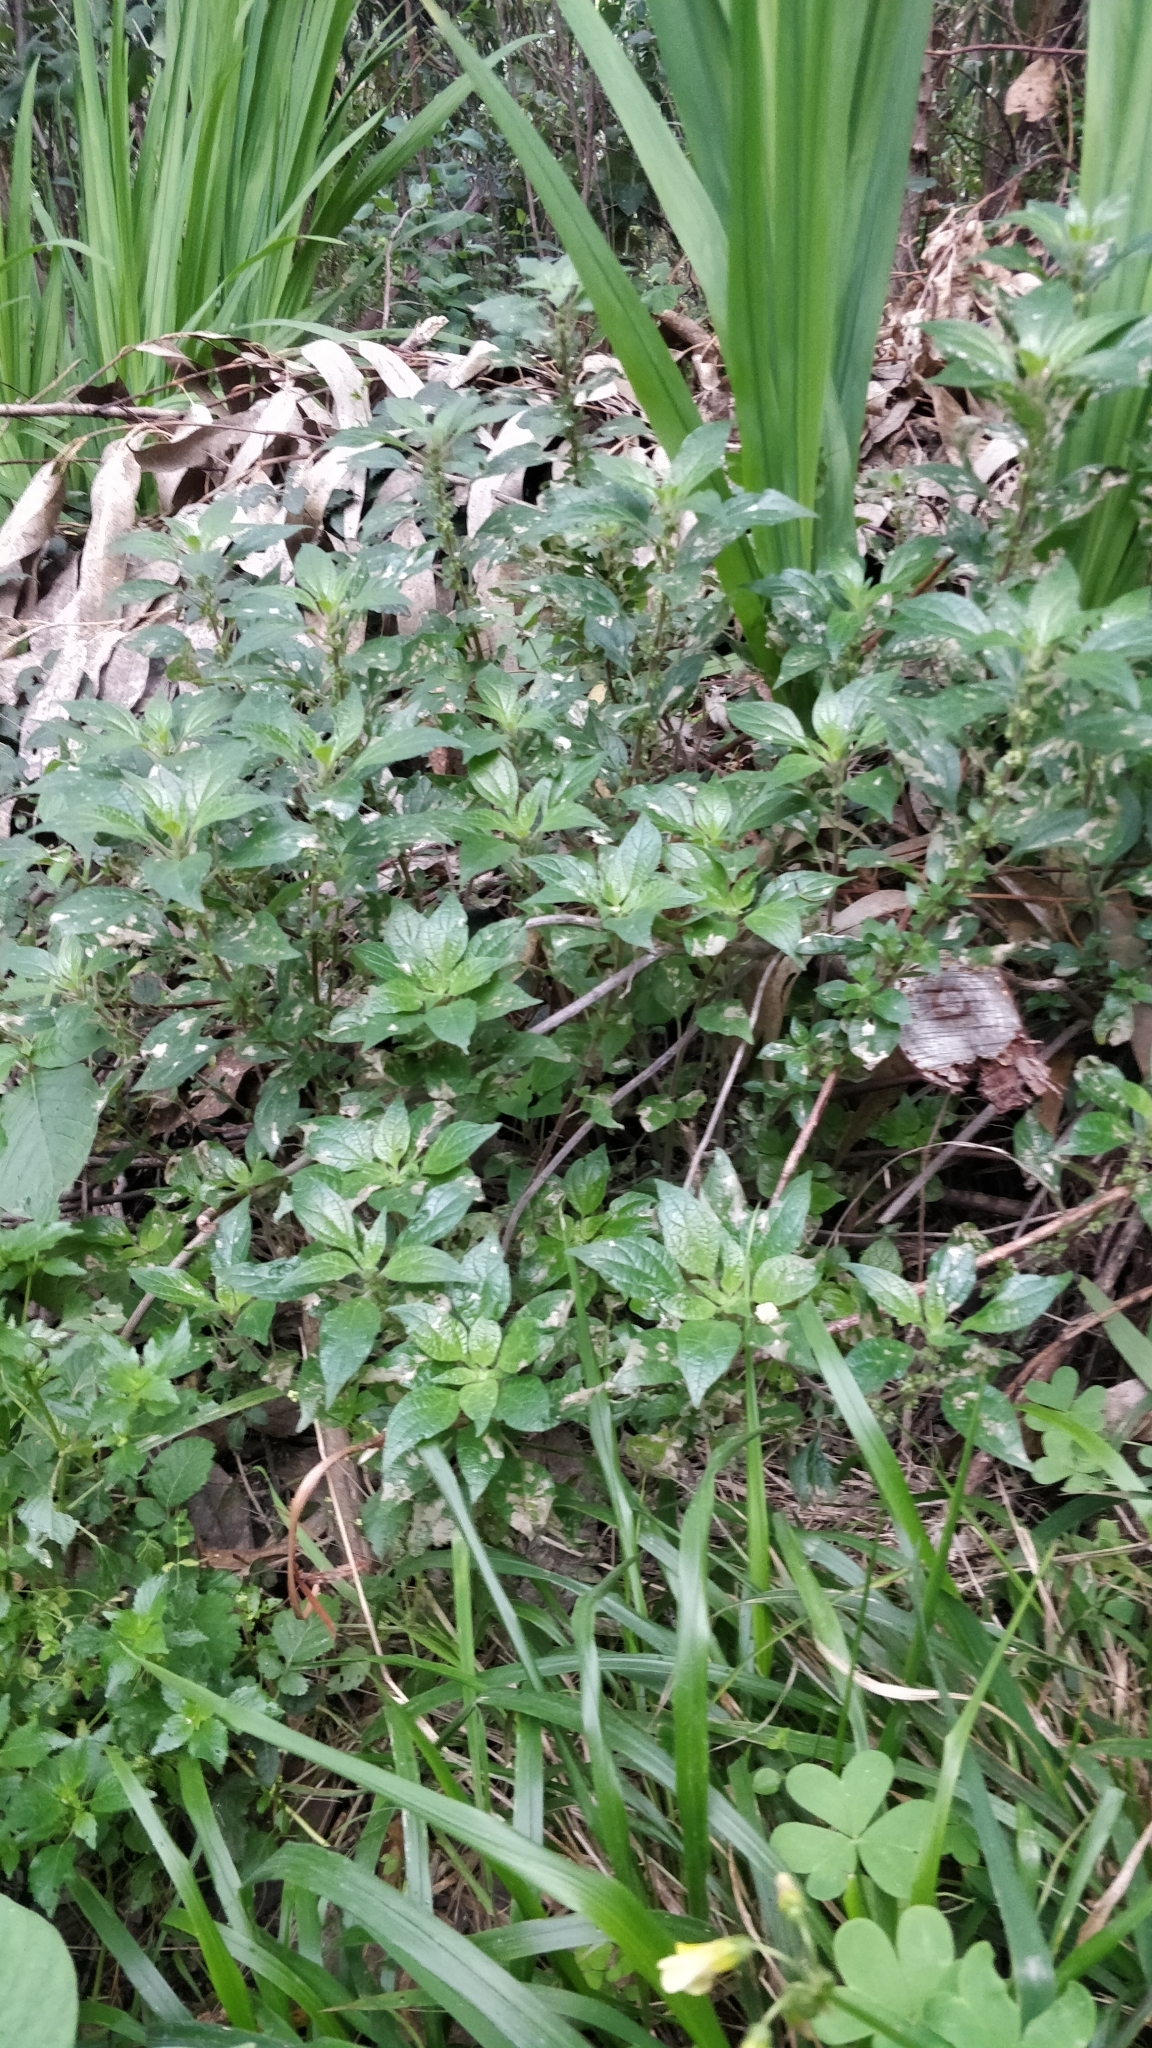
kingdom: Plantae
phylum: Tracheophyta
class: Magnoliopsida
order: Rosales
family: Urticaceae
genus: Parietaria
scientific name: Parietaria judaica
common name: Pellitory-of-the-wall
